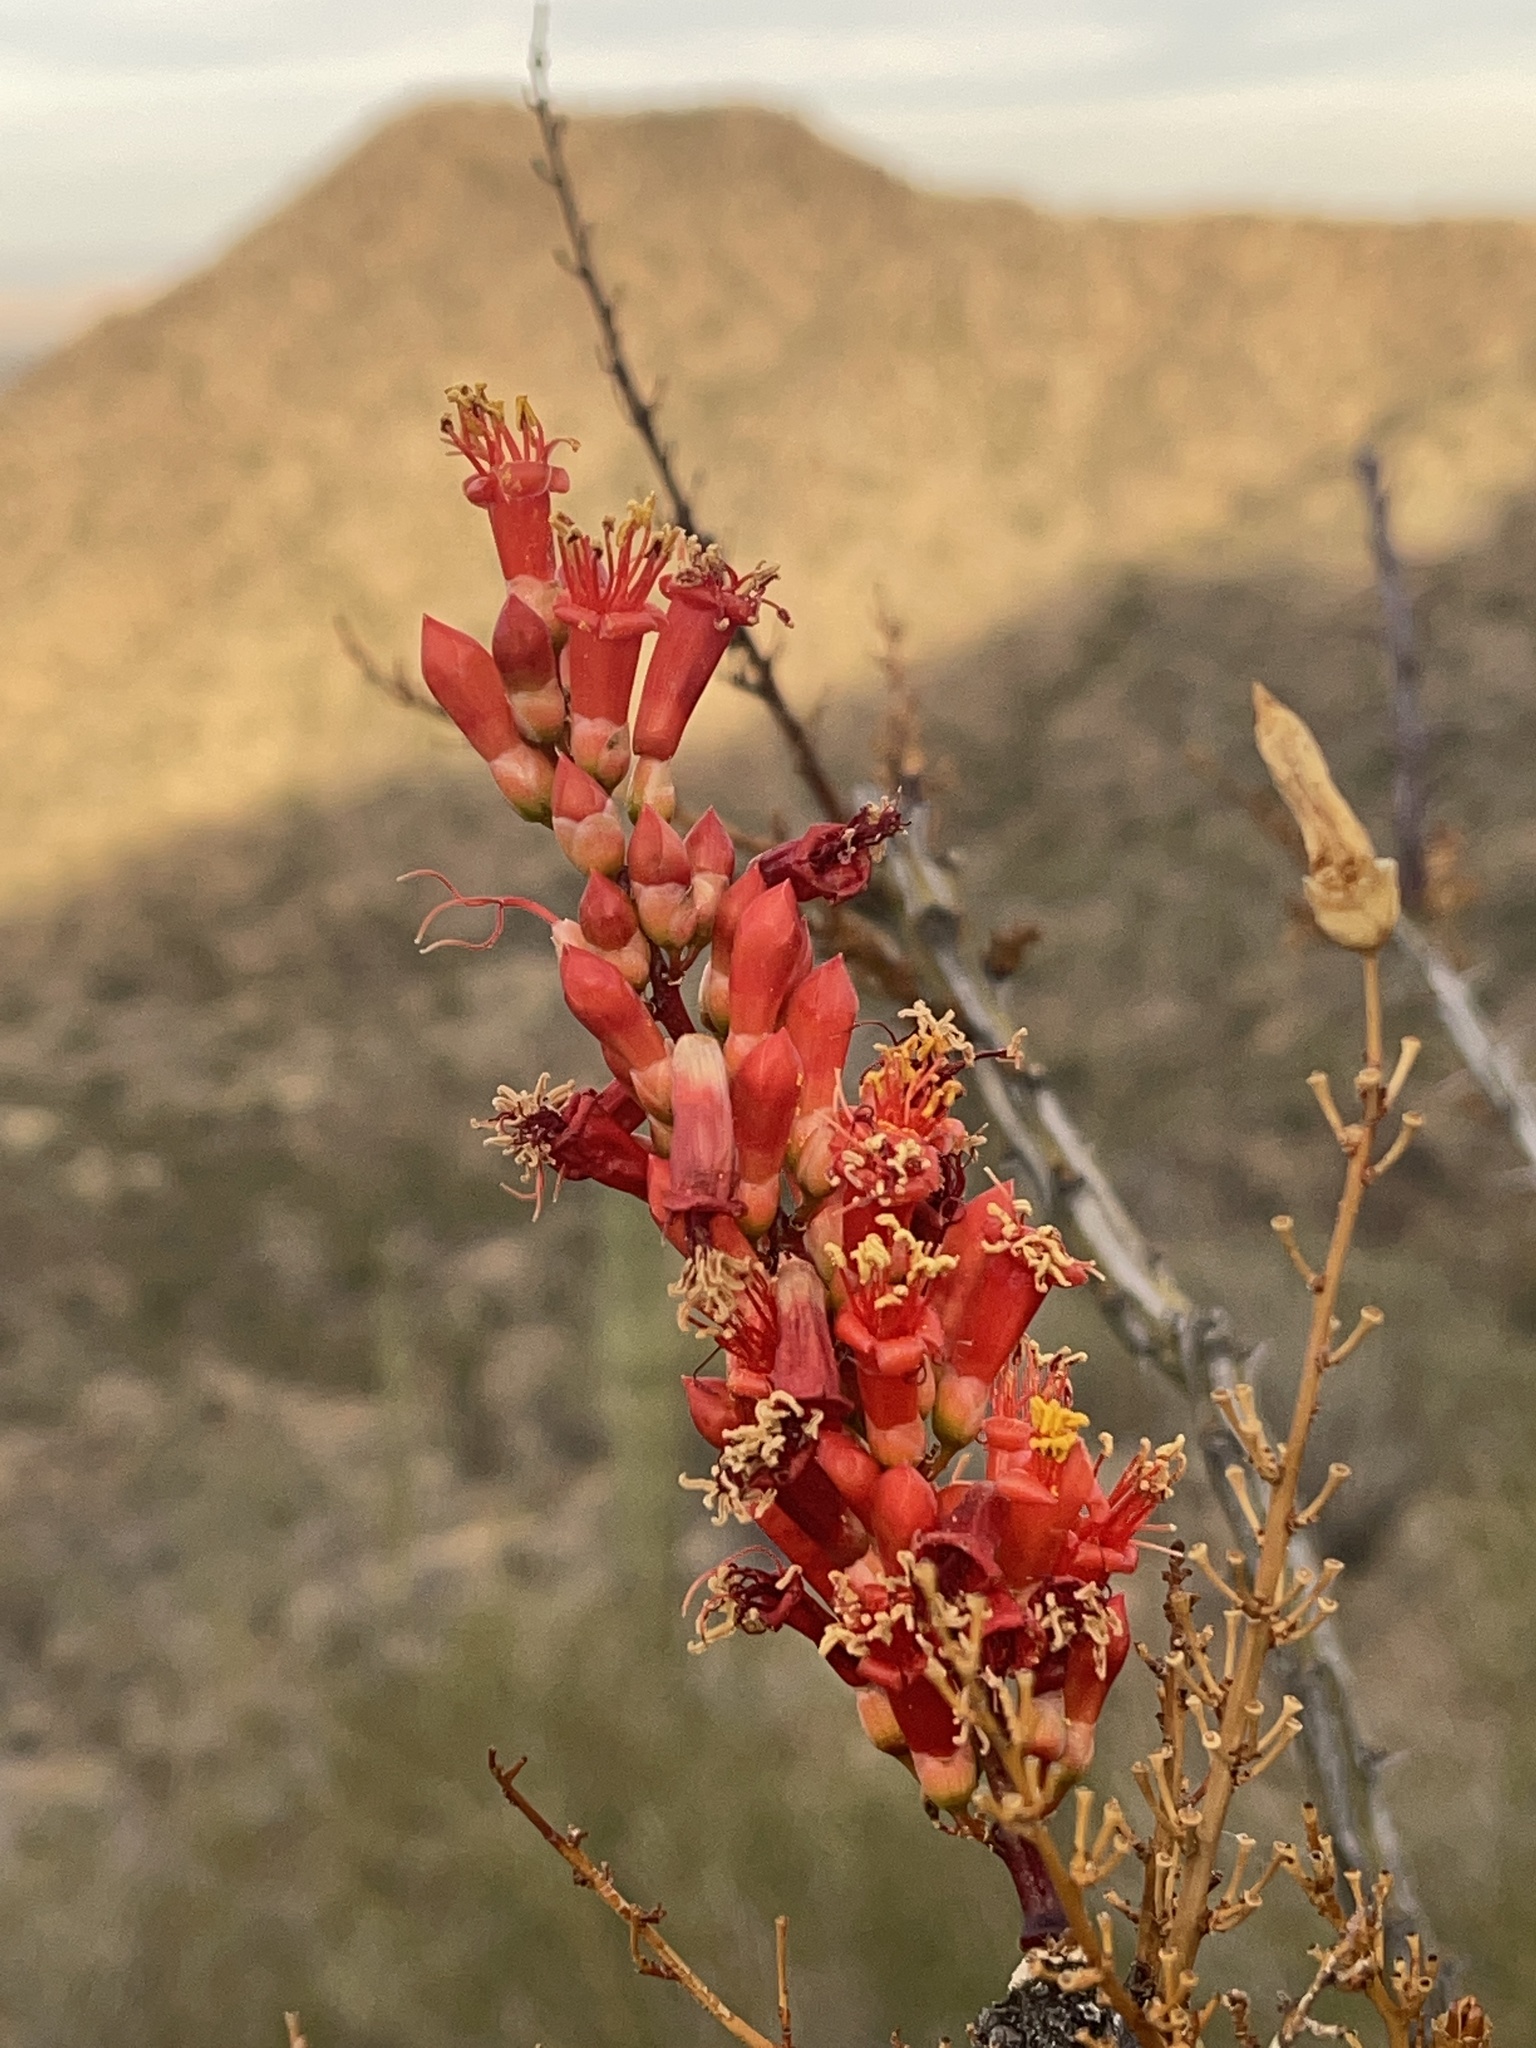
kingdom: Plantae
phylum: Tracheophyta
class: Magnoliopsida
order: Ericales
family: Fouquieriaceae
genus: Fouquieria
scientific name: Fouquieria splendens
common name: Vine-cactus
